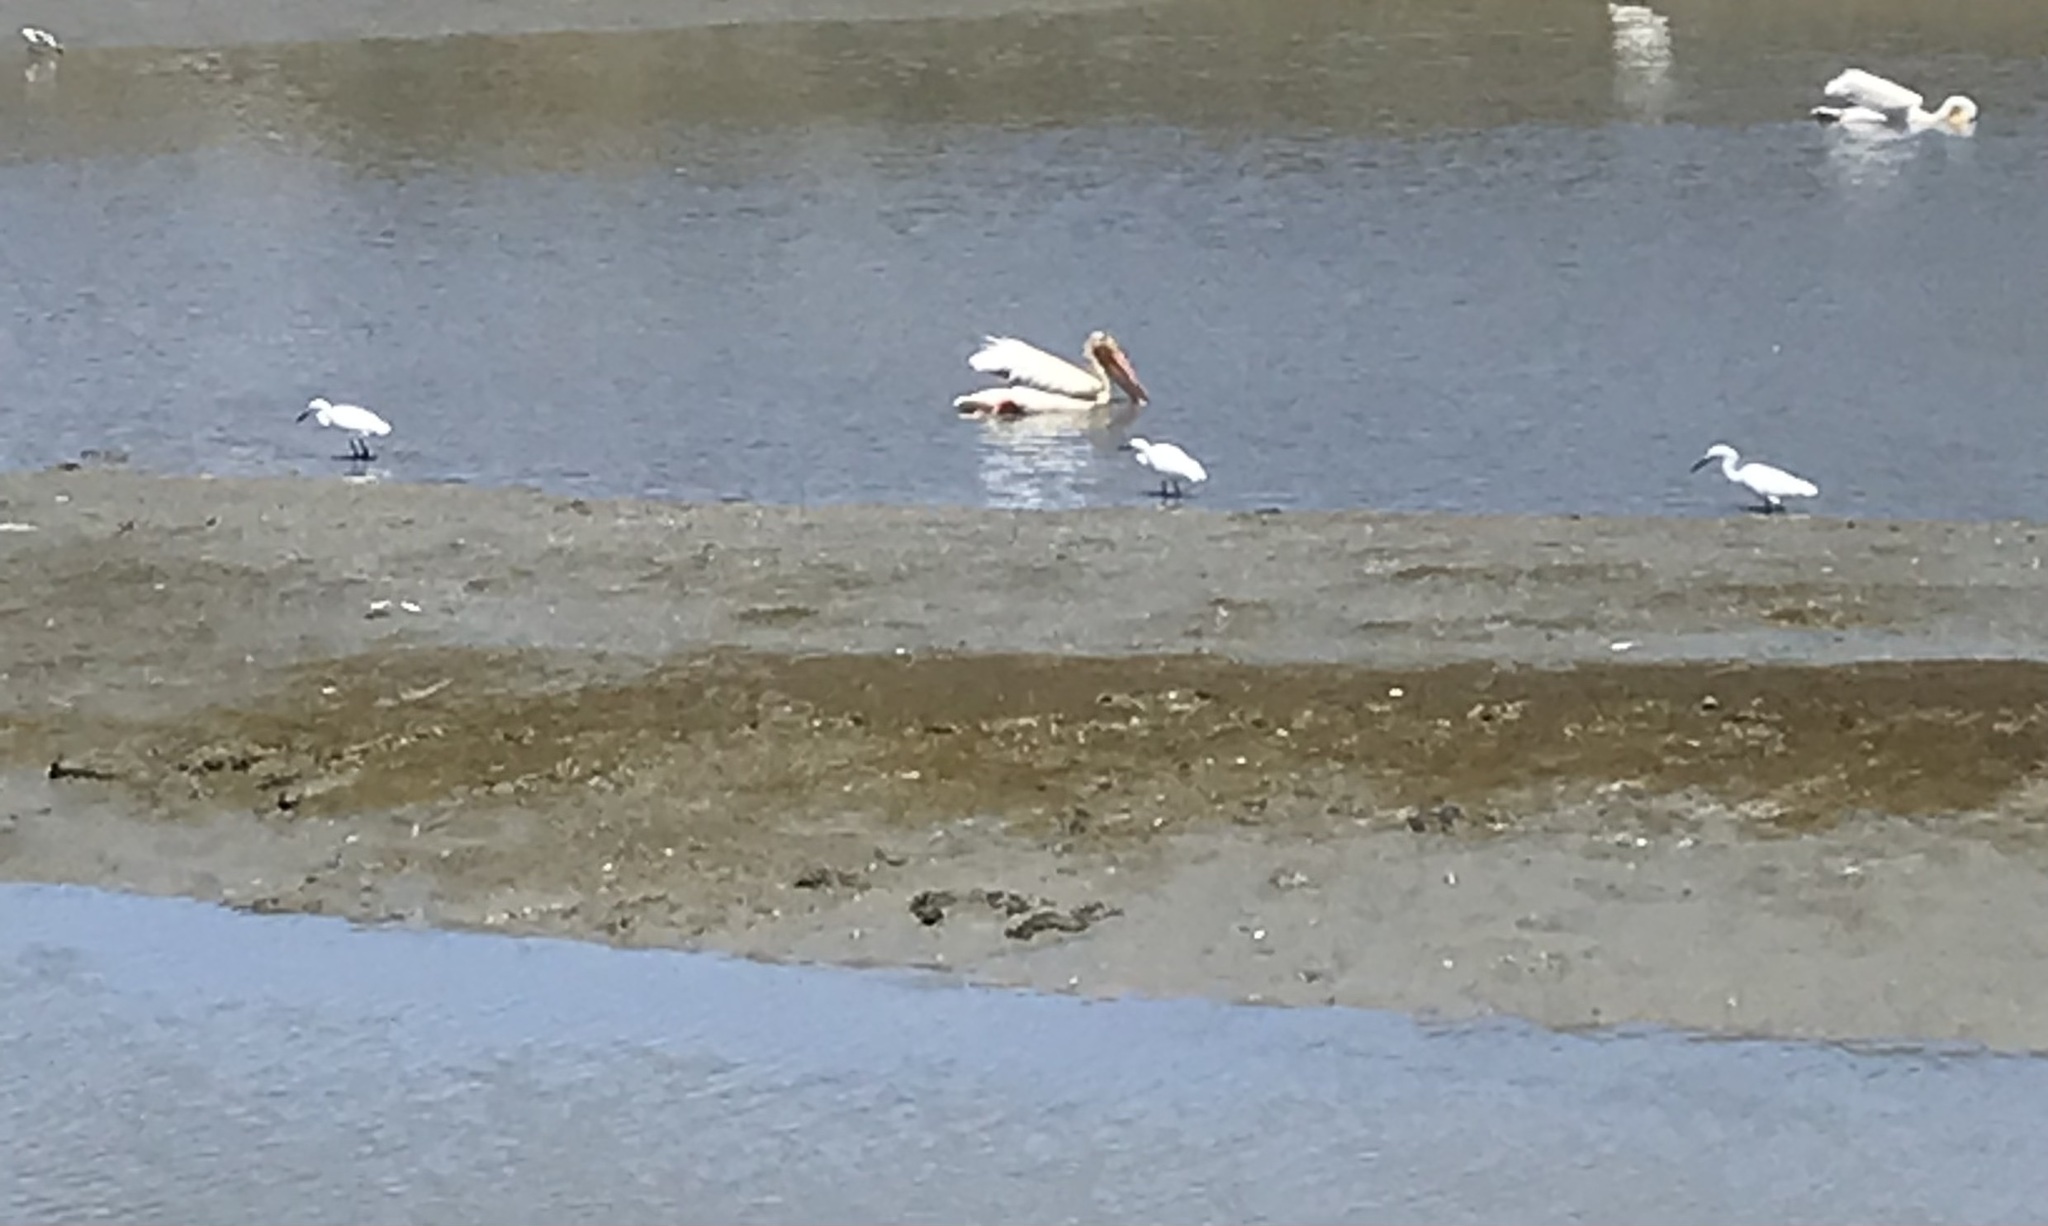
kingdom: Animalia
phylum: Chordata
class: Aves
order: Pelecaniformes
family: Ardeidae
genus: Egretta
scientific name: Egretta thula
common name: Snowy egret
